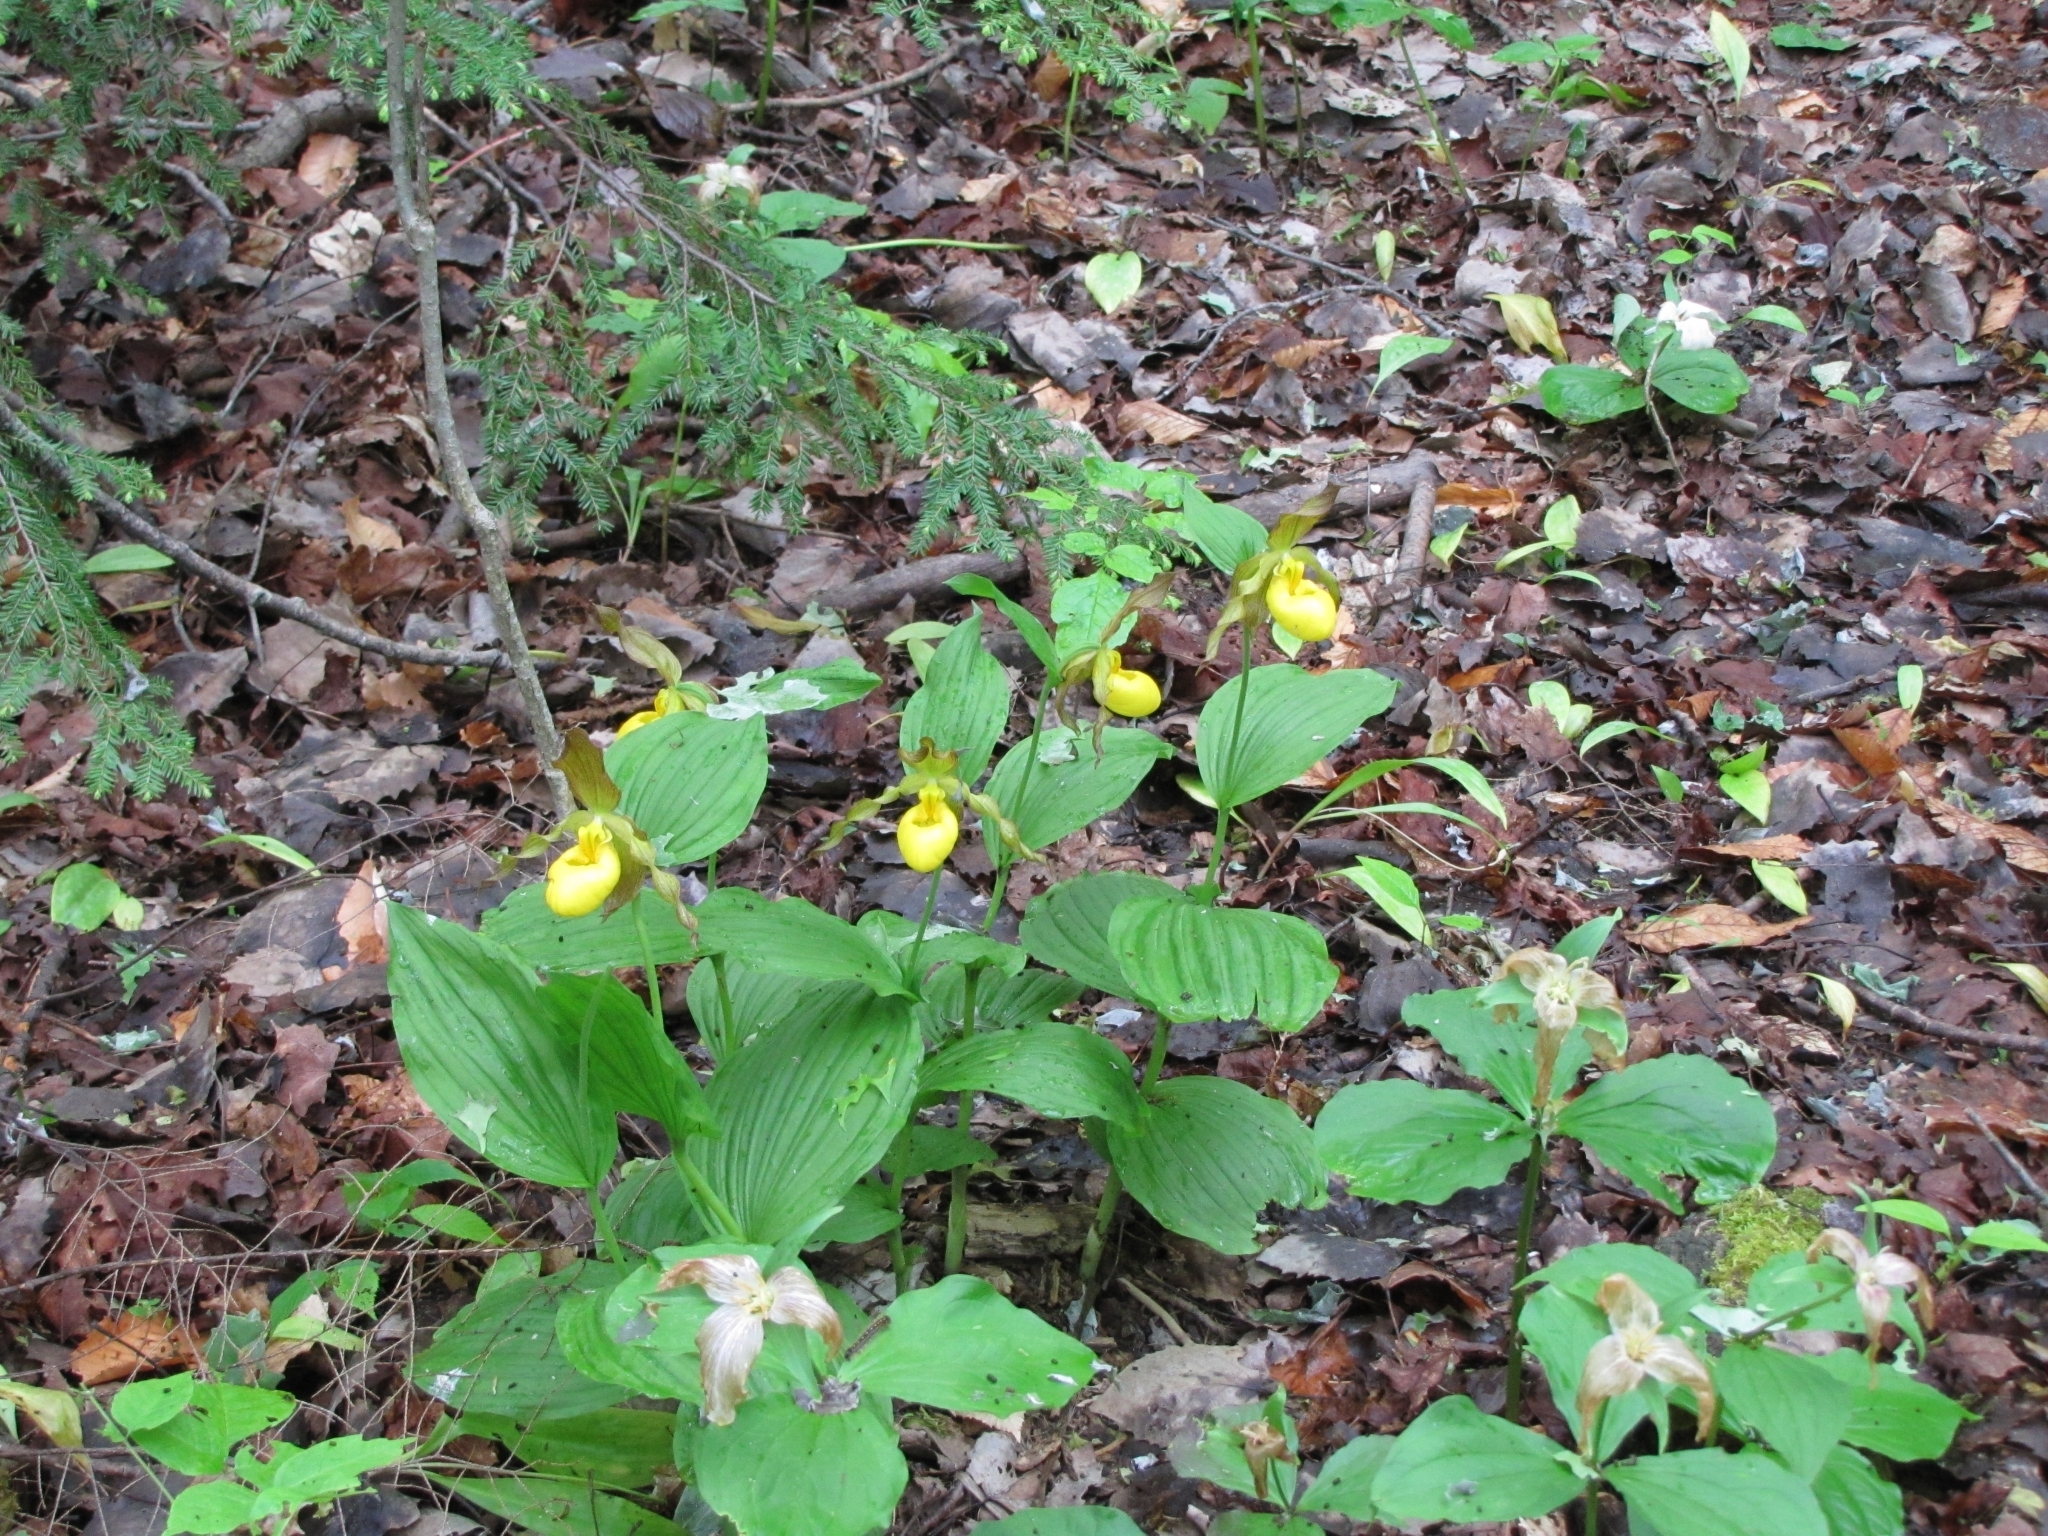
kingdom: Plantae
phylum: Tracheophyta
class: Liliopsida
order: Asparagales
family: Orchidaceae
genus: Cypripedium
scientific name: Cypripedium parviflorum
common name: American yellow lady's-slipper
